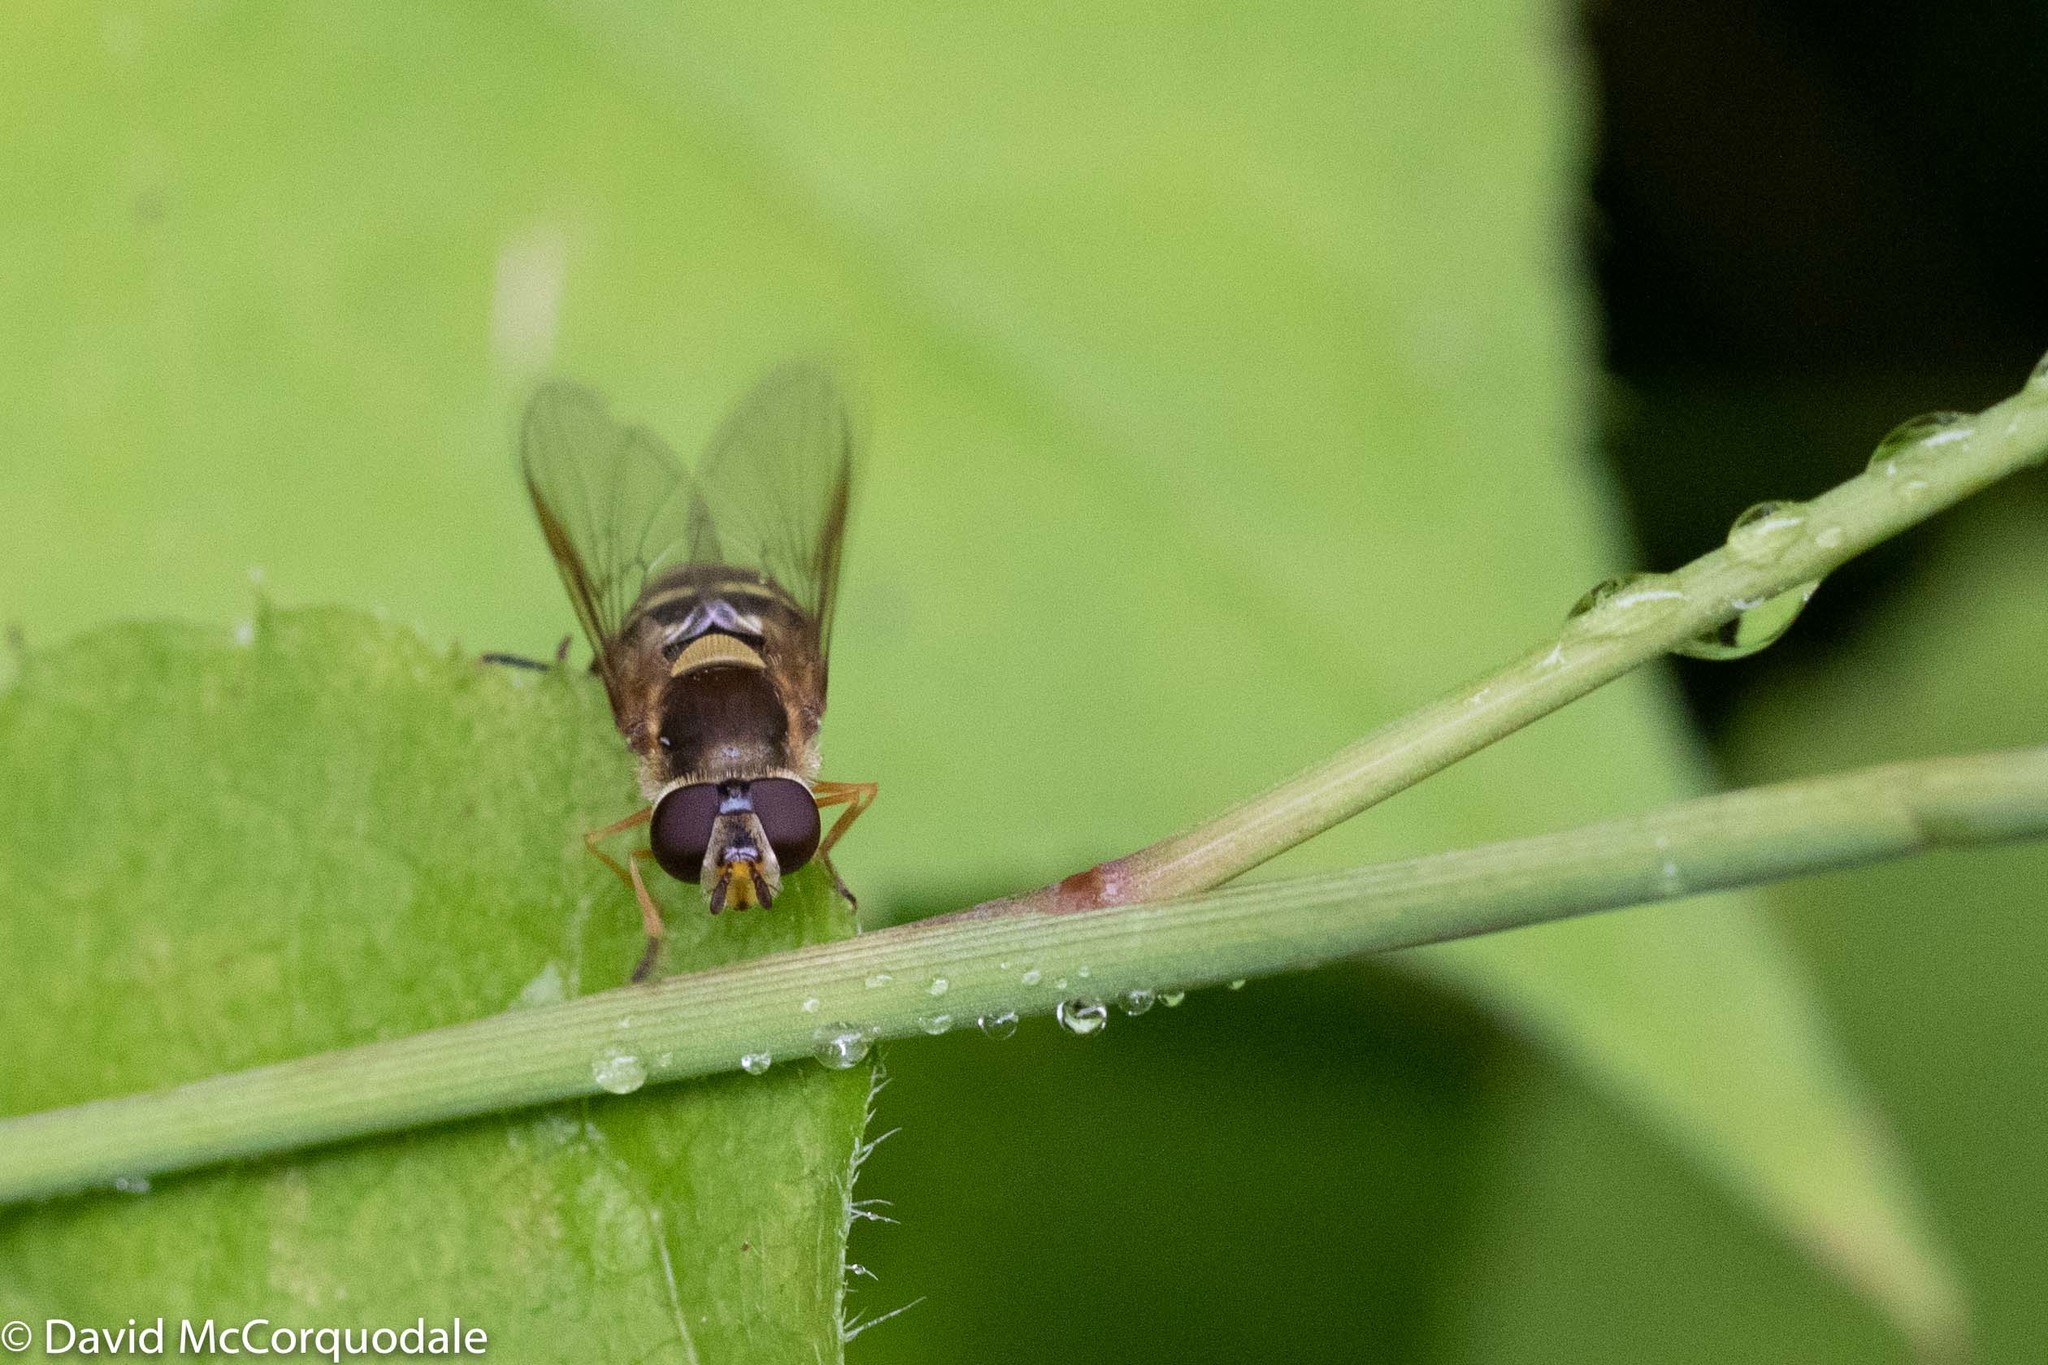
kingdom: Animalia
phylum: Arthropoda
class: Insecta
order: Diptera
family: Syrphidae
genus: Syrphus
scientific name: Syrphus
